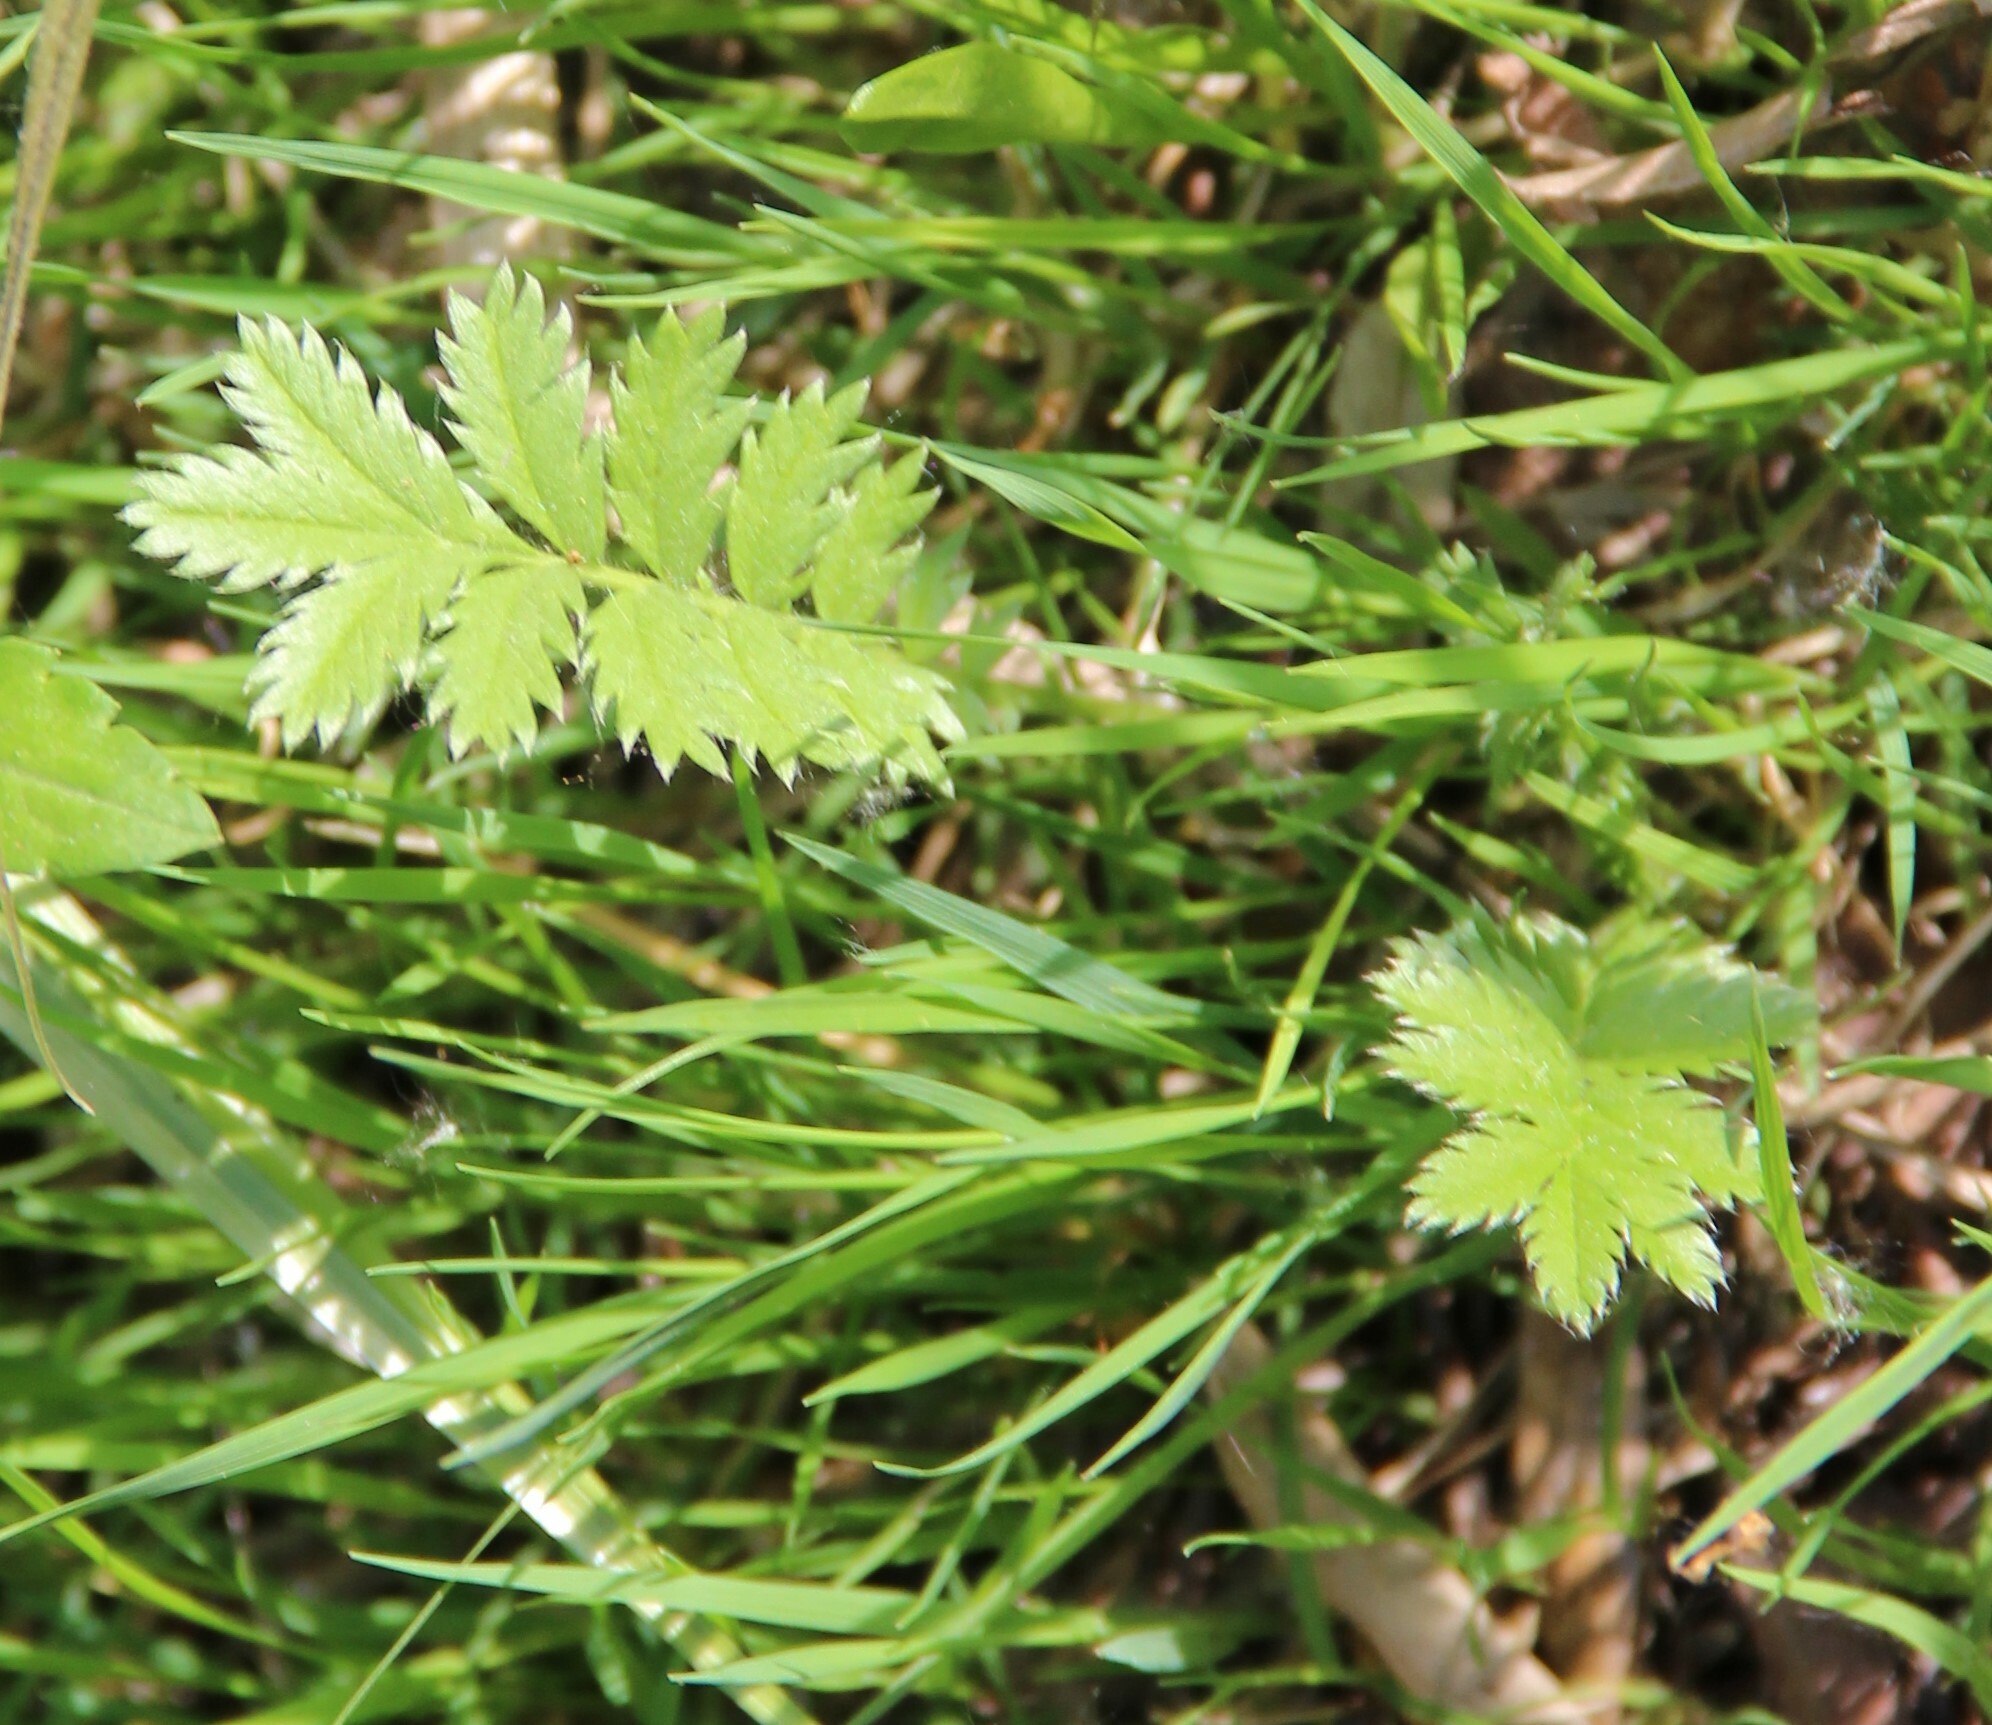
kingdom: Plantae
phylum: Tracheophyta
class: Magnoliopsida
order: Rosales
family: Rosaceae
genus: Argentina
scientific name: Argentina anserina
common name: Common silverweed
